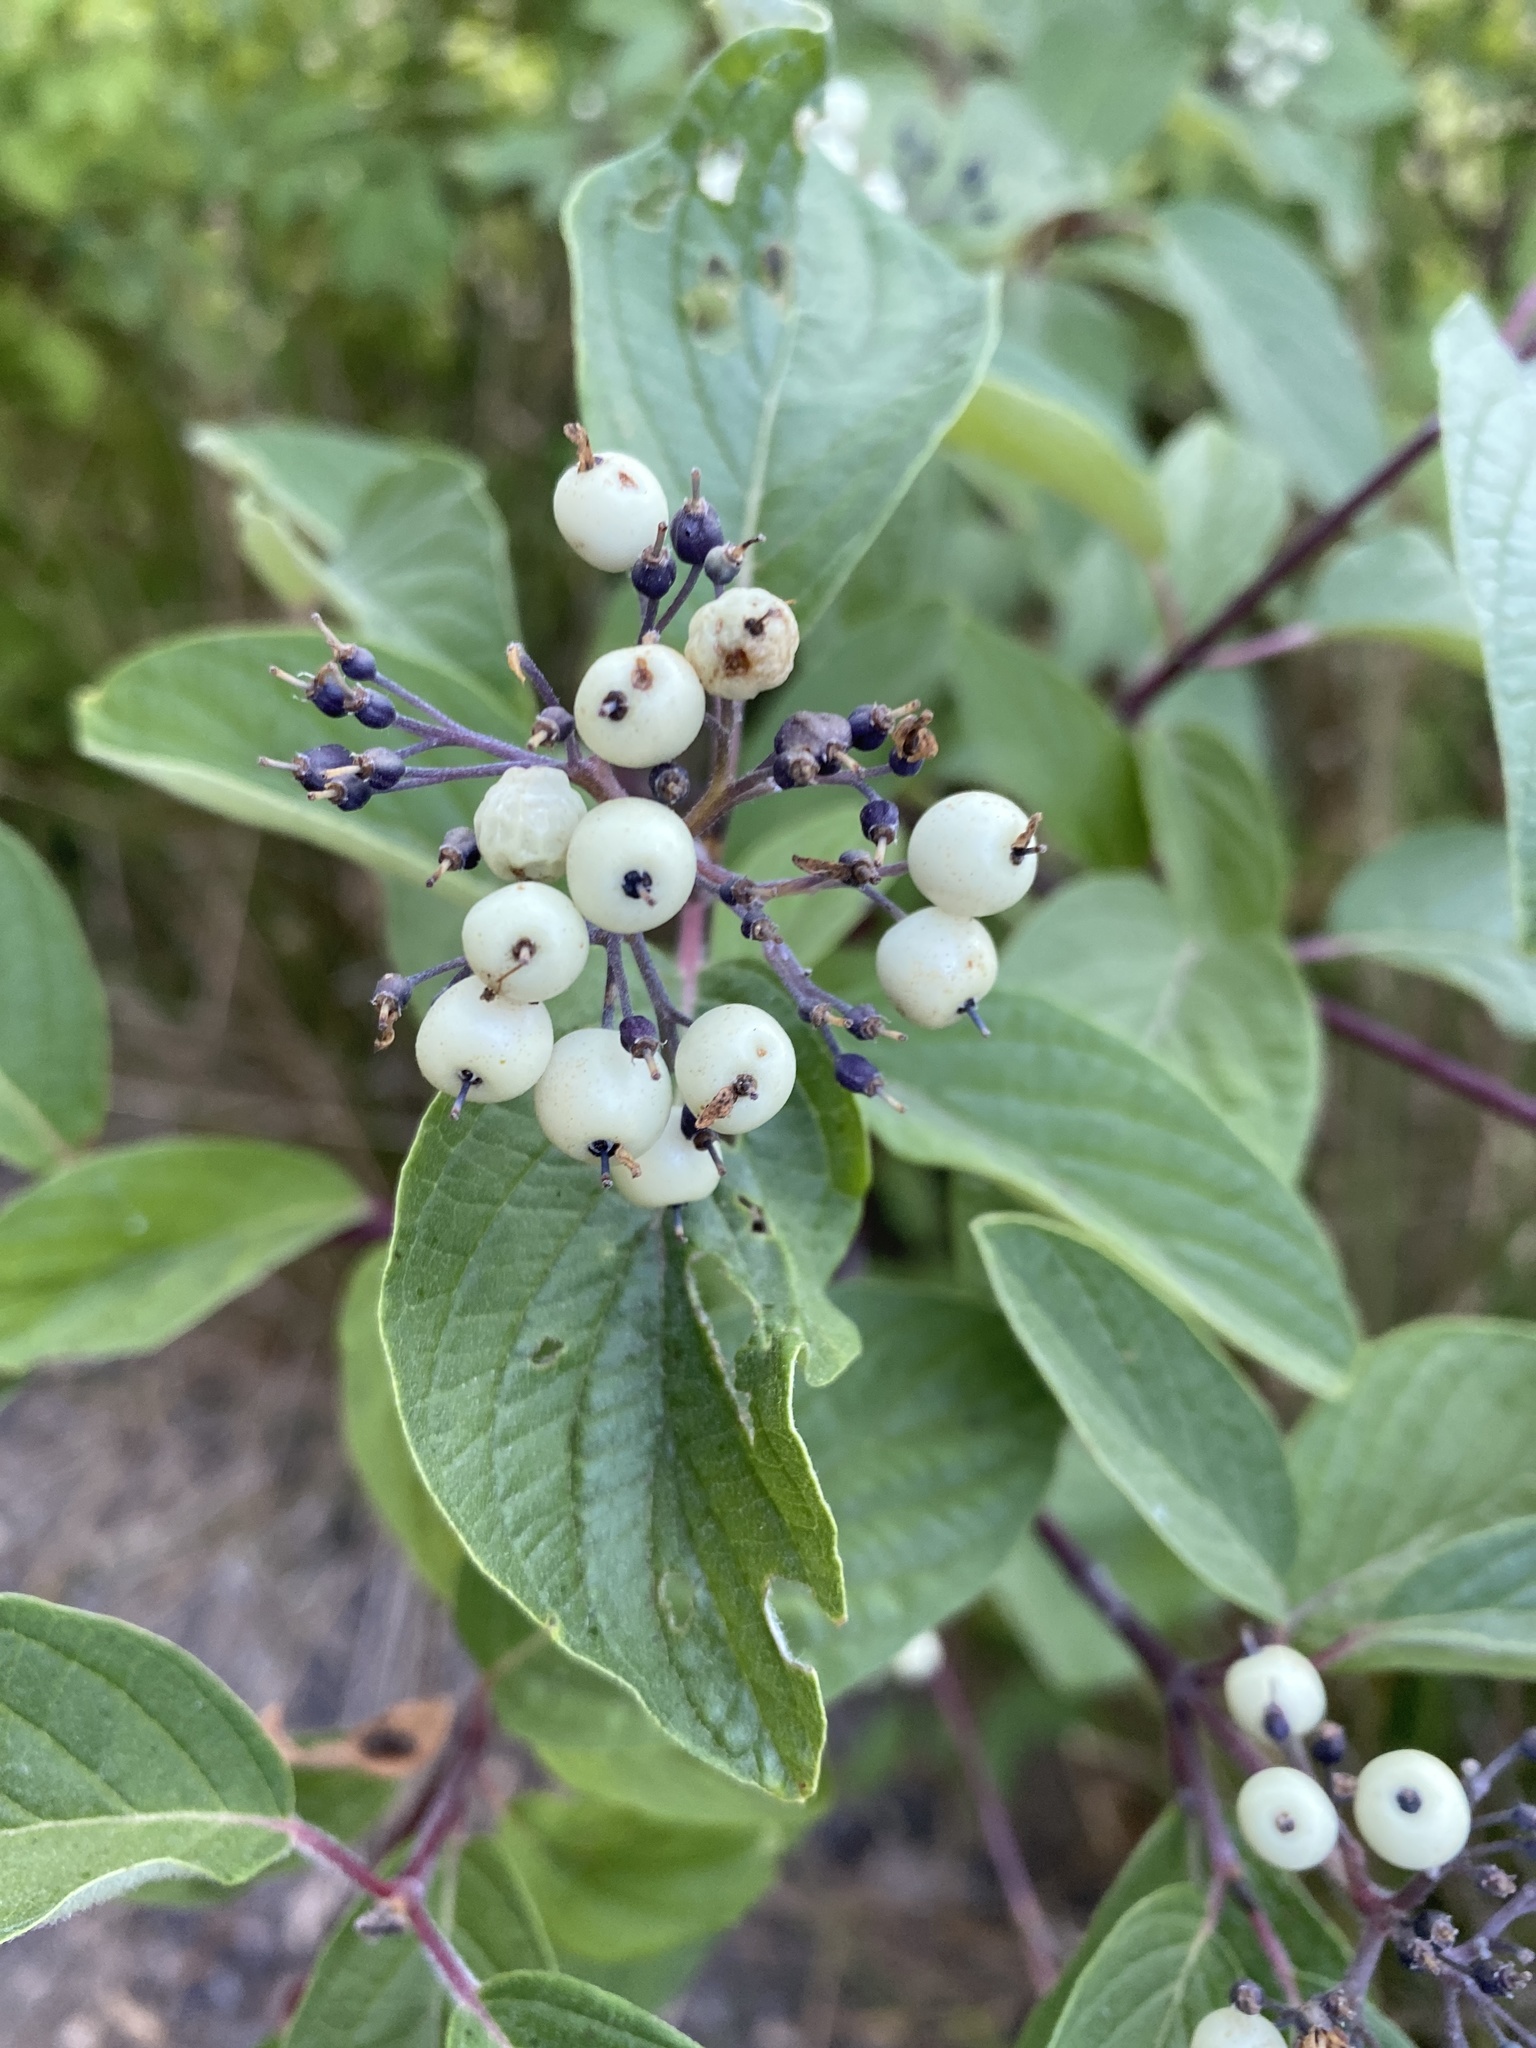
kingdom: Plantae
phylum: Tracheophyta
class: Magnoliopsida
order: Cornales
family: Cornaceae
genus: Cornus
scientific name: Cornus sericea
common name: Red-osier dogwood
